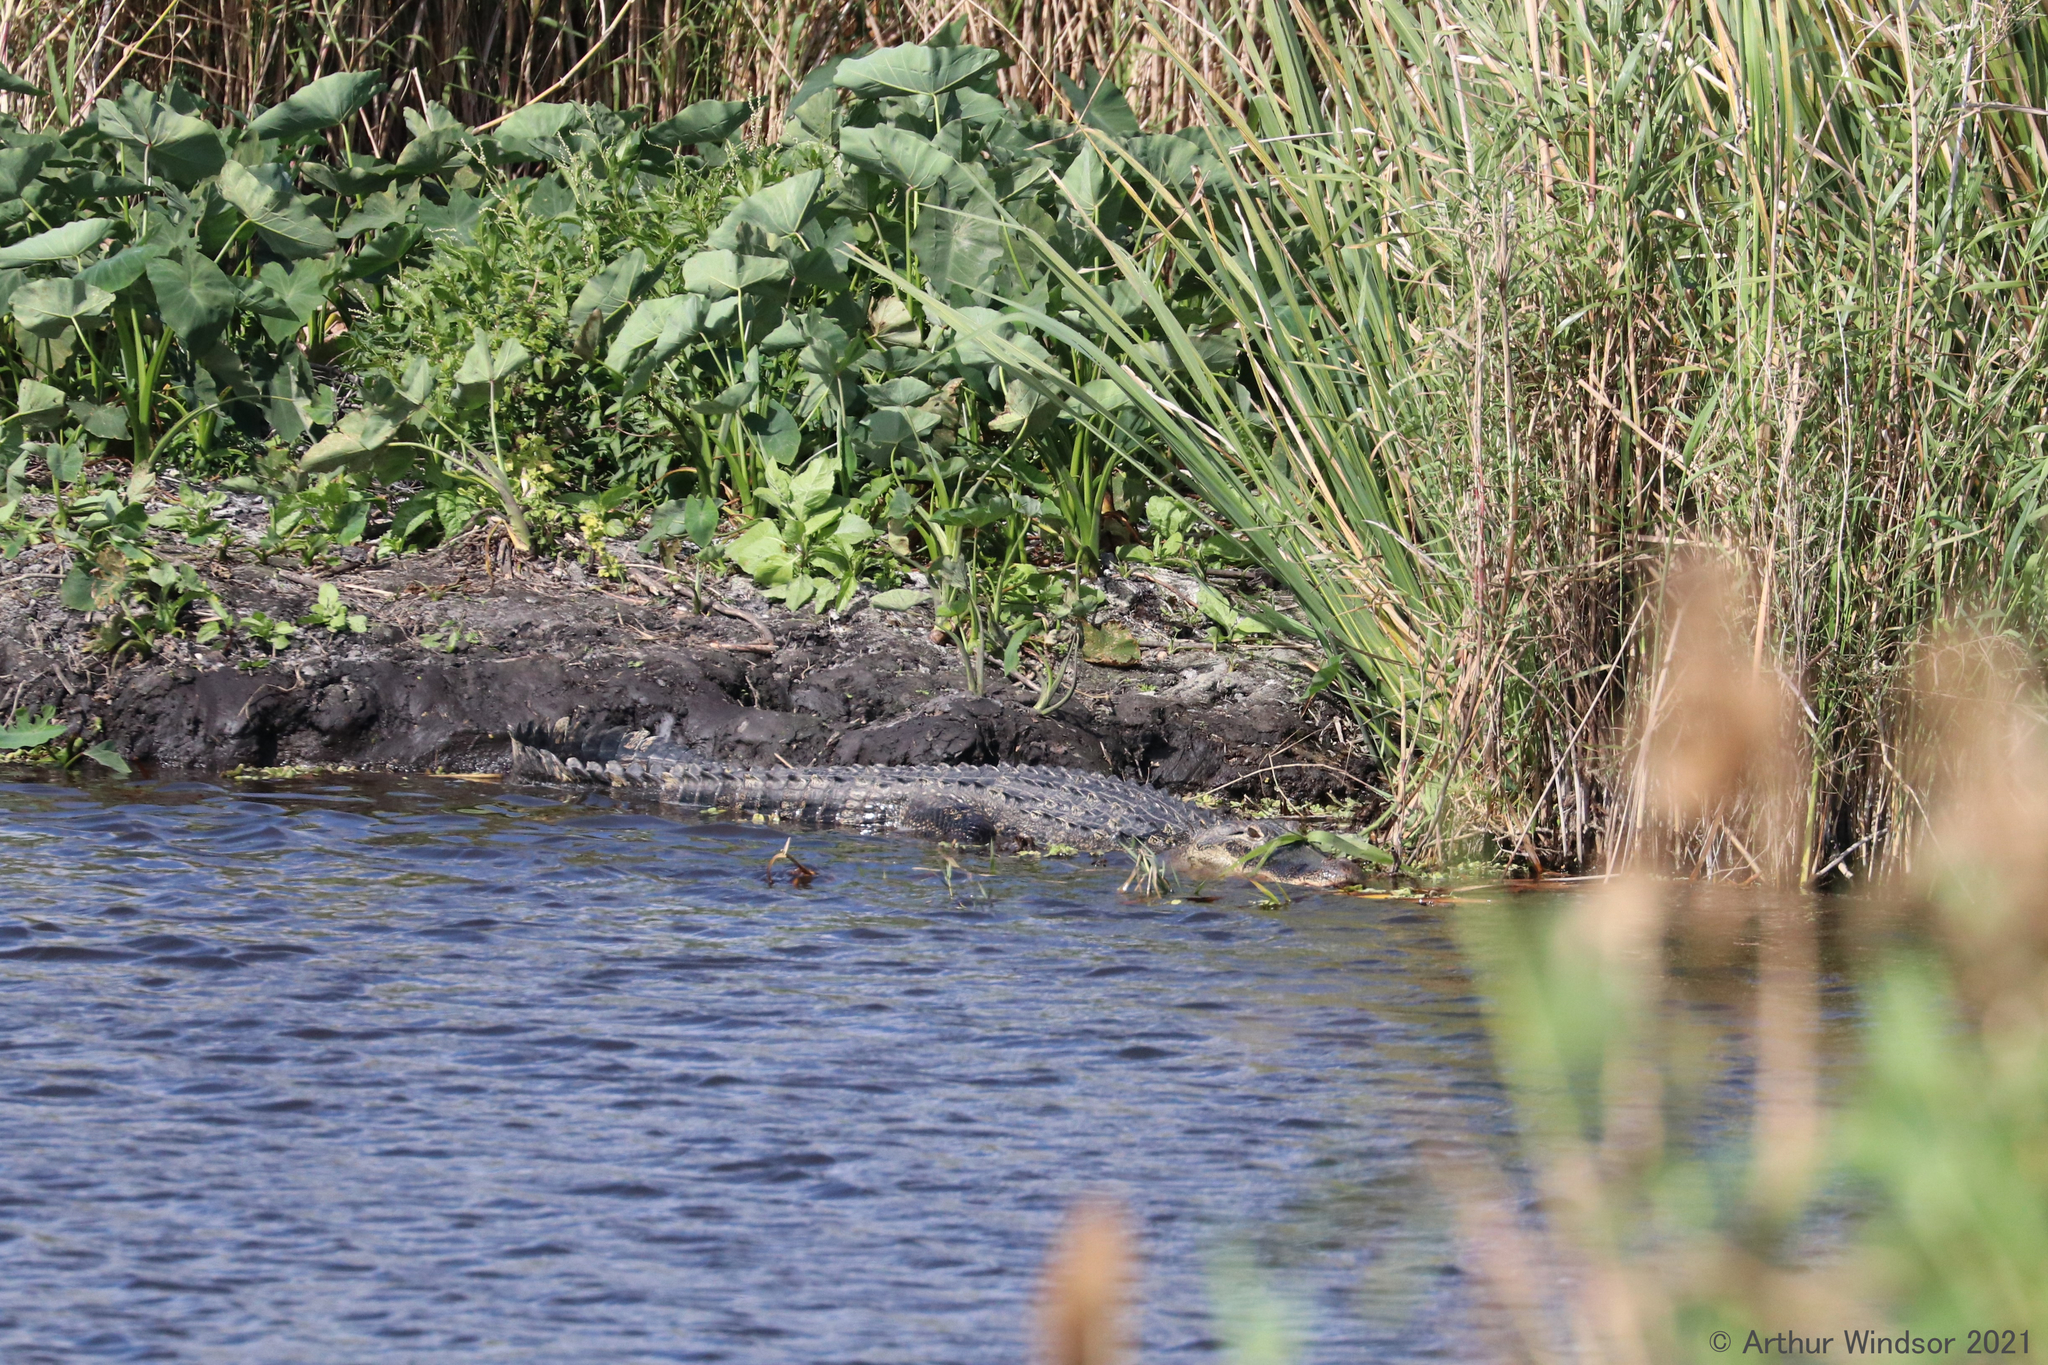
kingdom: Animalia
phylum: Chordata
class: Crocodylia
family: Alligatoridae
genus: Alligator
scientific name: Alligator mississippiensis
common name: American alligator
